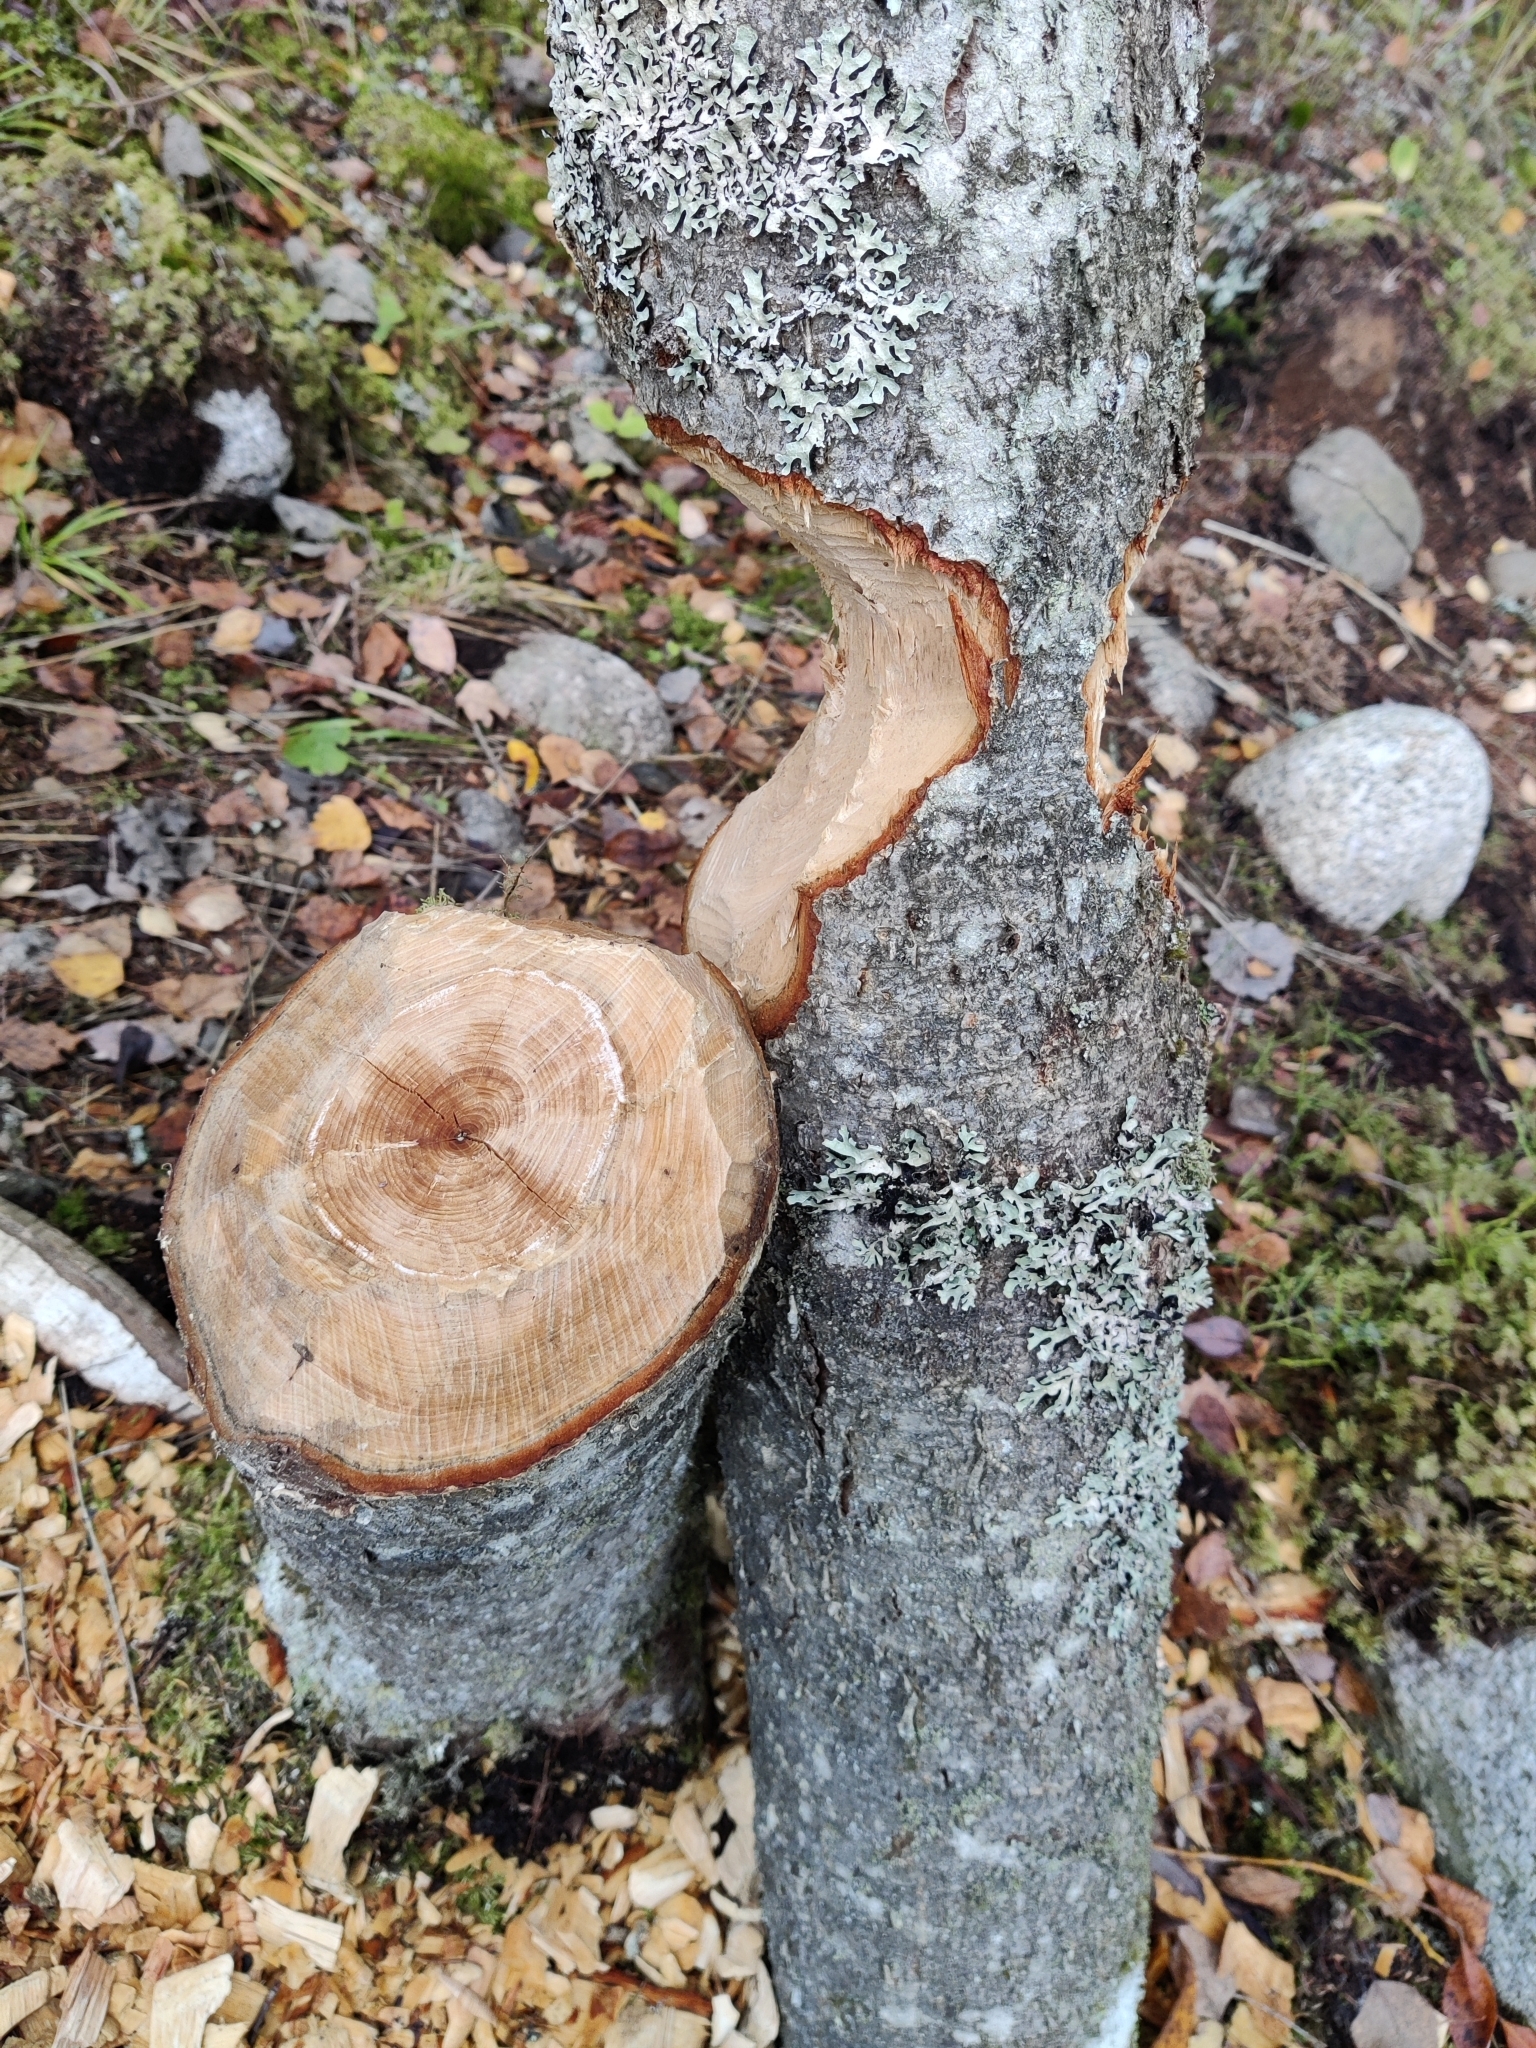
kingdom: Animalia
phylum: Chordata
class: Mammalia
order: Rodentia
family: Castoridae
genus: Castor
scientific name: Castor
